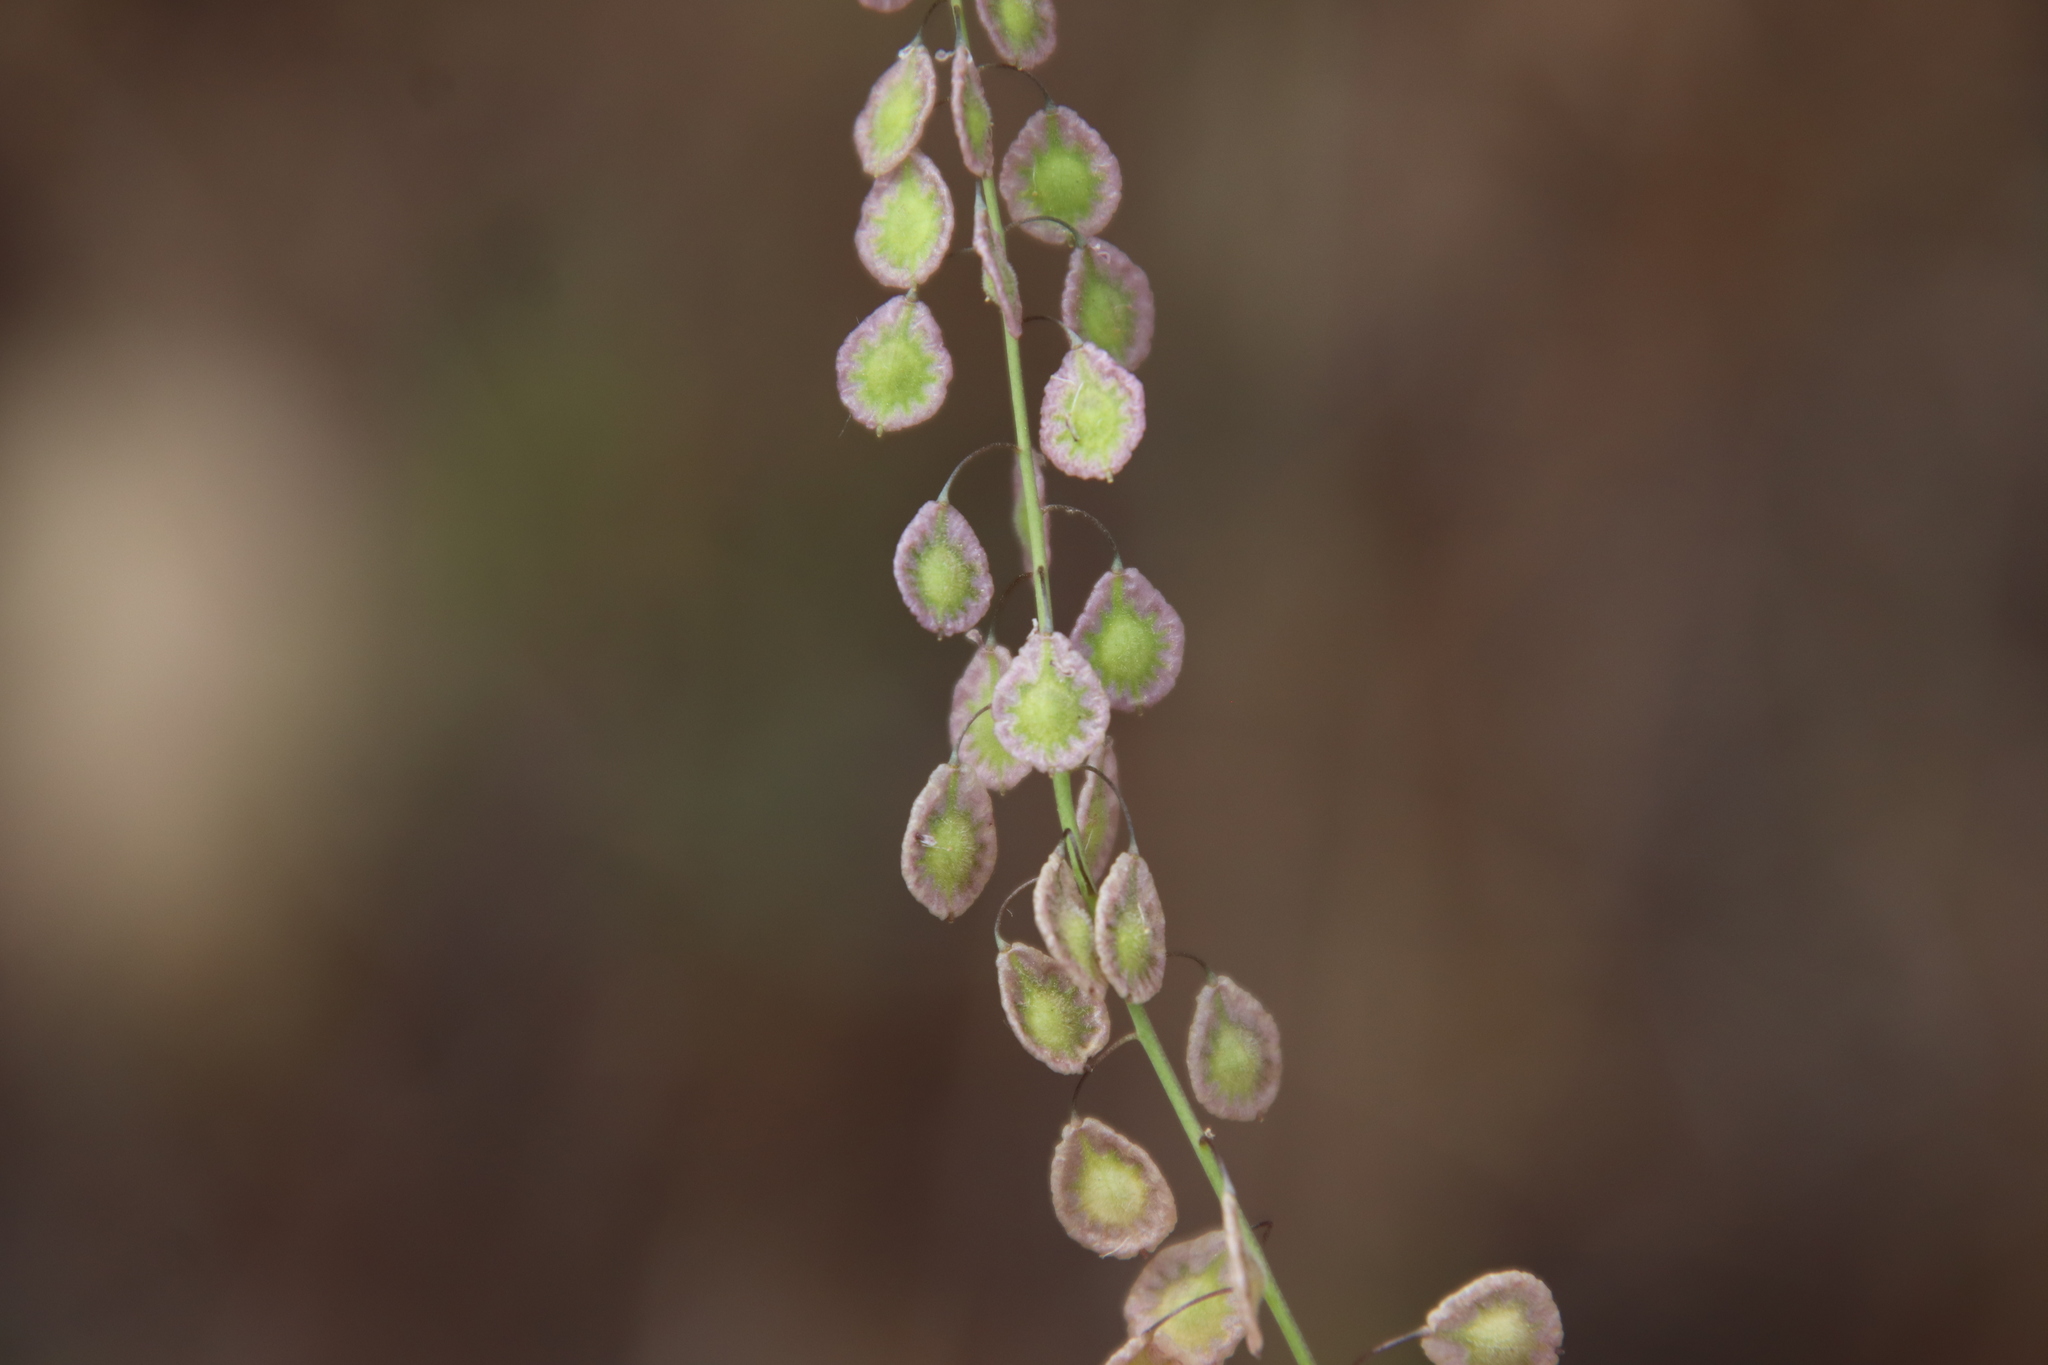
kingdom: Plantae
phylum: Tracheophyta
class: Magnoliopsida
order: Brassicales
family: Brassicaceae
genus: Thysanocarpus
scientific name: Thysanocarpus curvipes
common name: Sand fringepod
